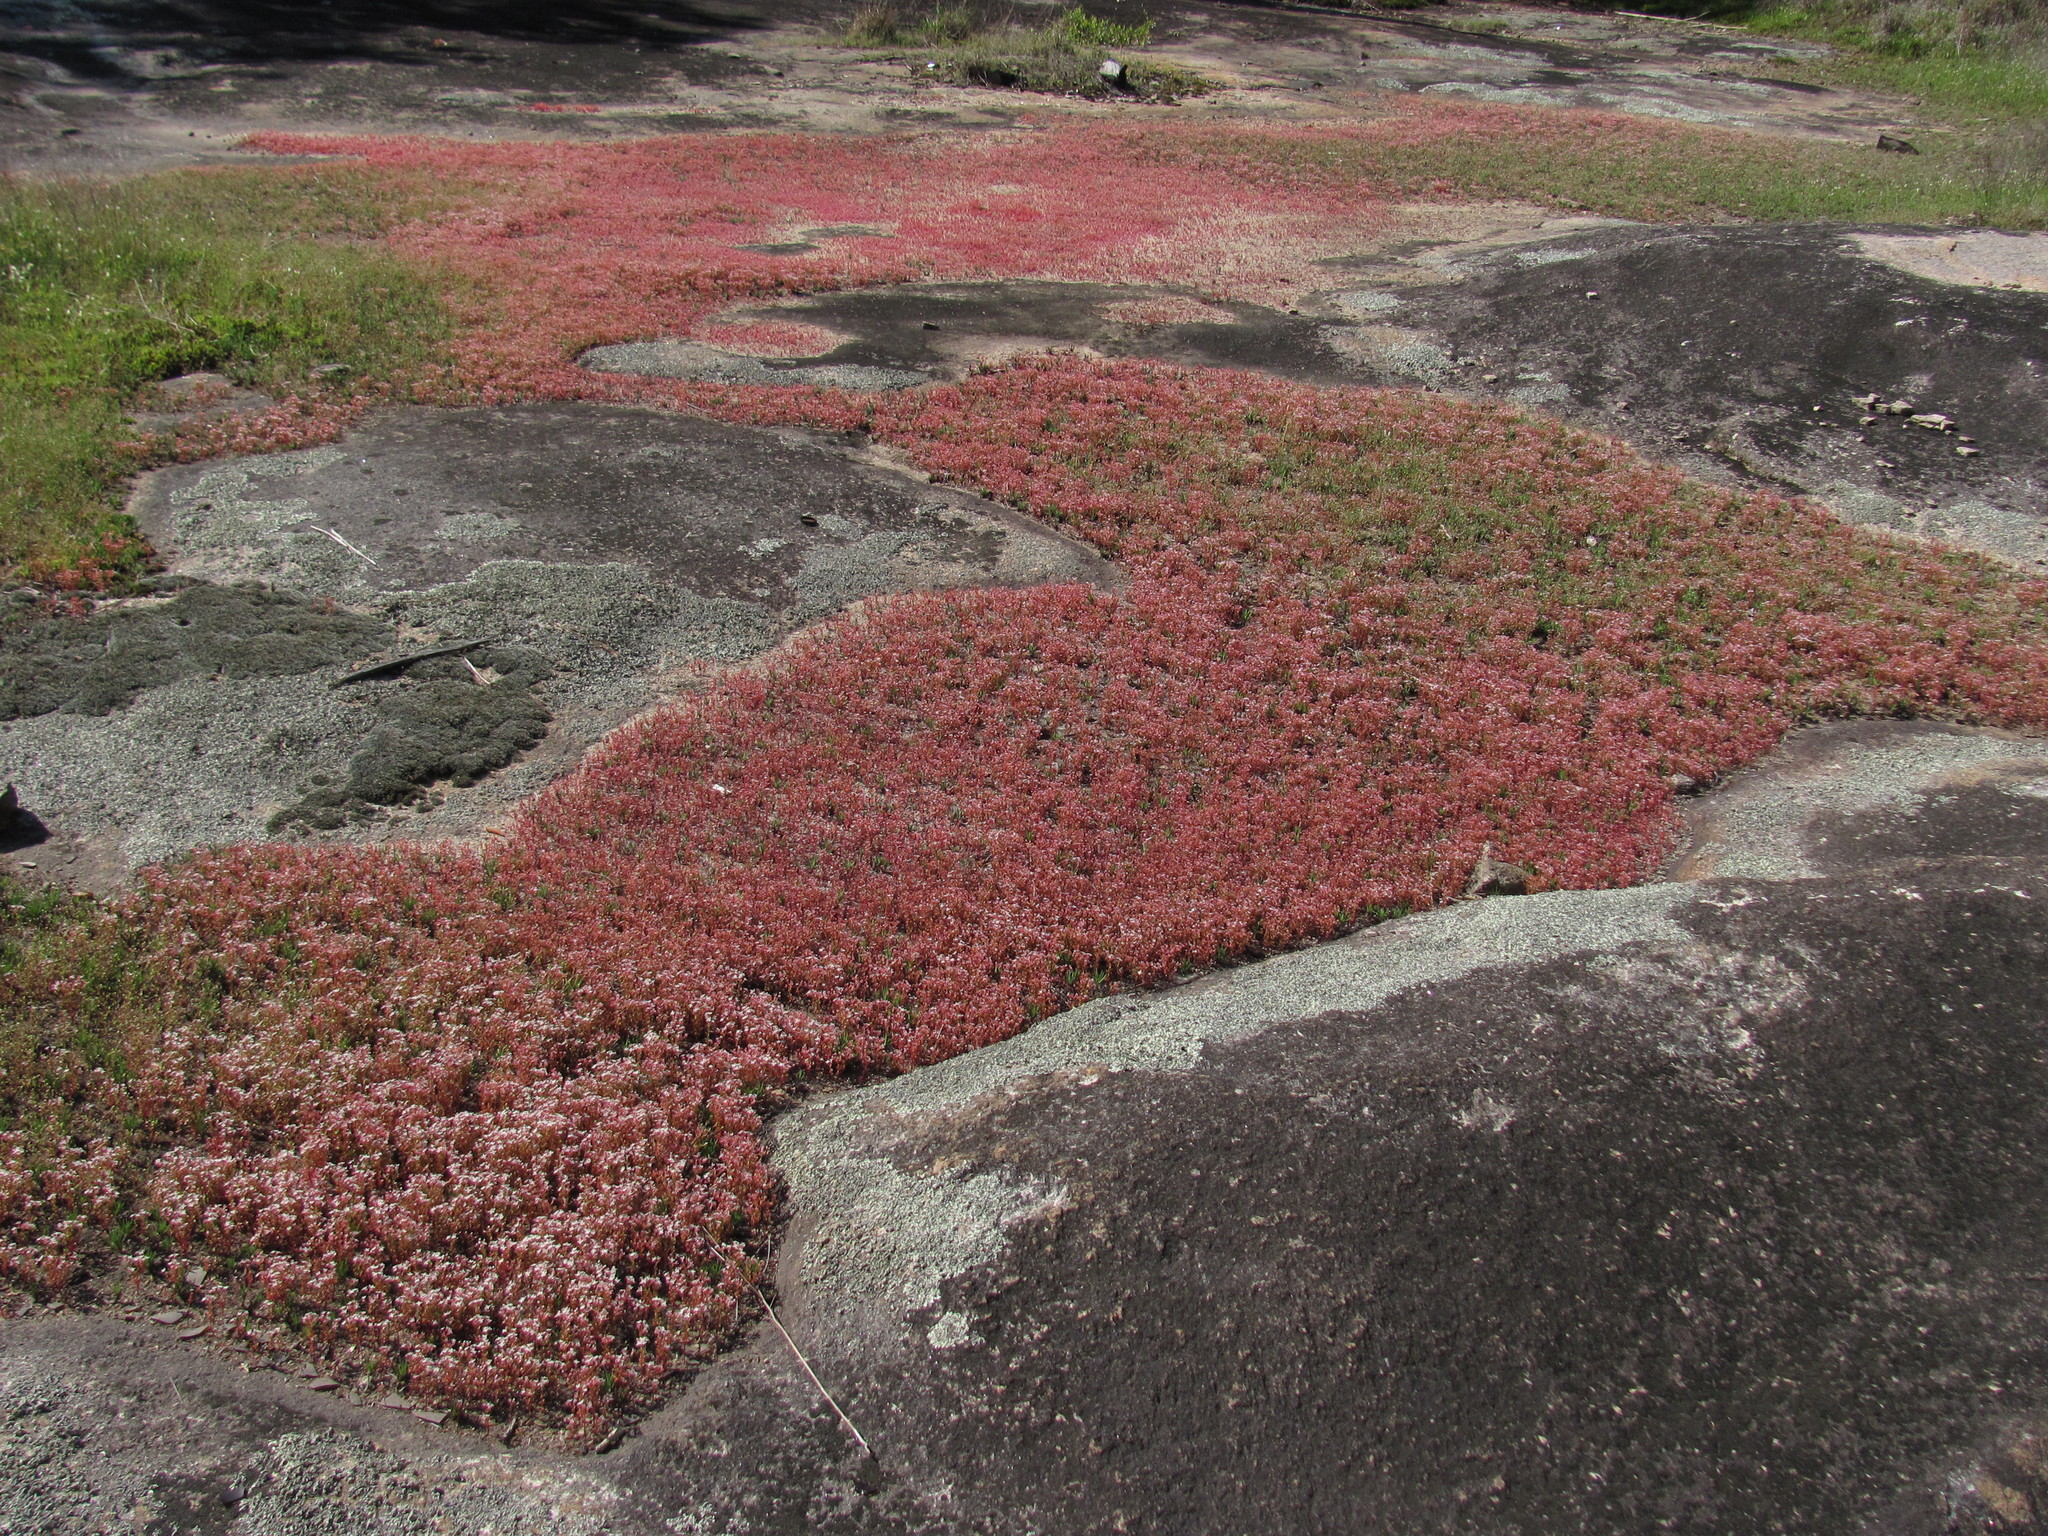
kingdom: Plantae
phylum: Tracheophyta
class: Magnoliopsida
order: Saxifragales
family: Crassulaceae
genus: Sedum
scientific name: Sedum smallii
